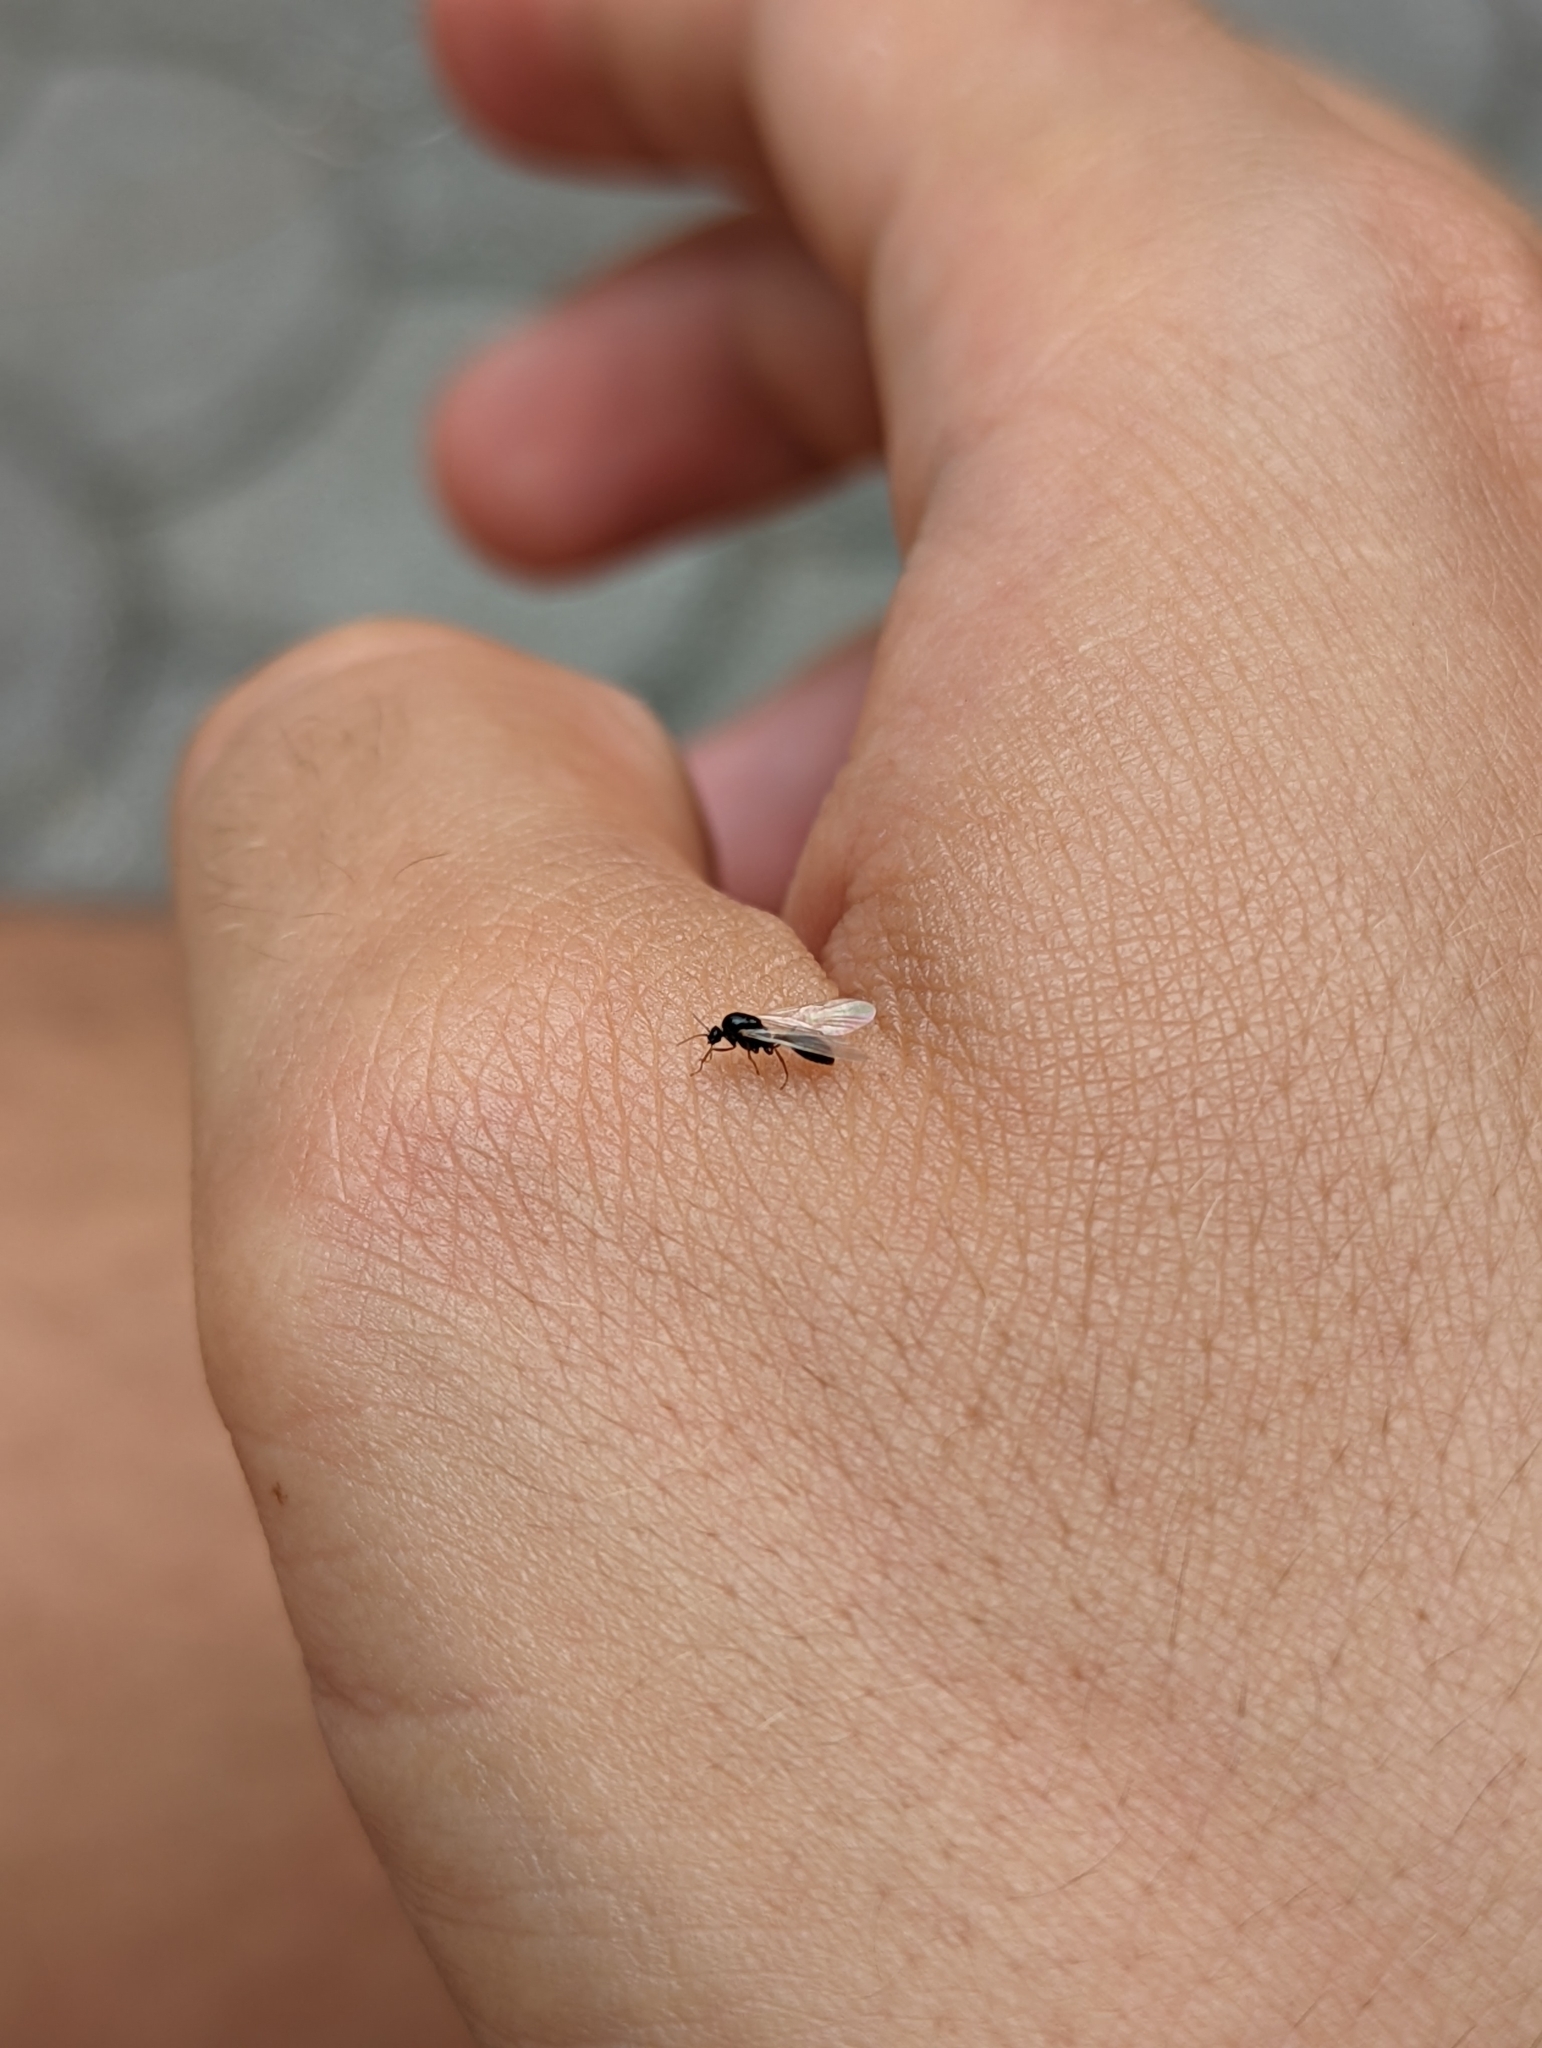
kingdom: Animalia
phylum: Arthropoda
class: Insecta
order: Hymenoptera
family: Formicidae
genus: Solenopsis
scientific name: Solenopsis fugax
